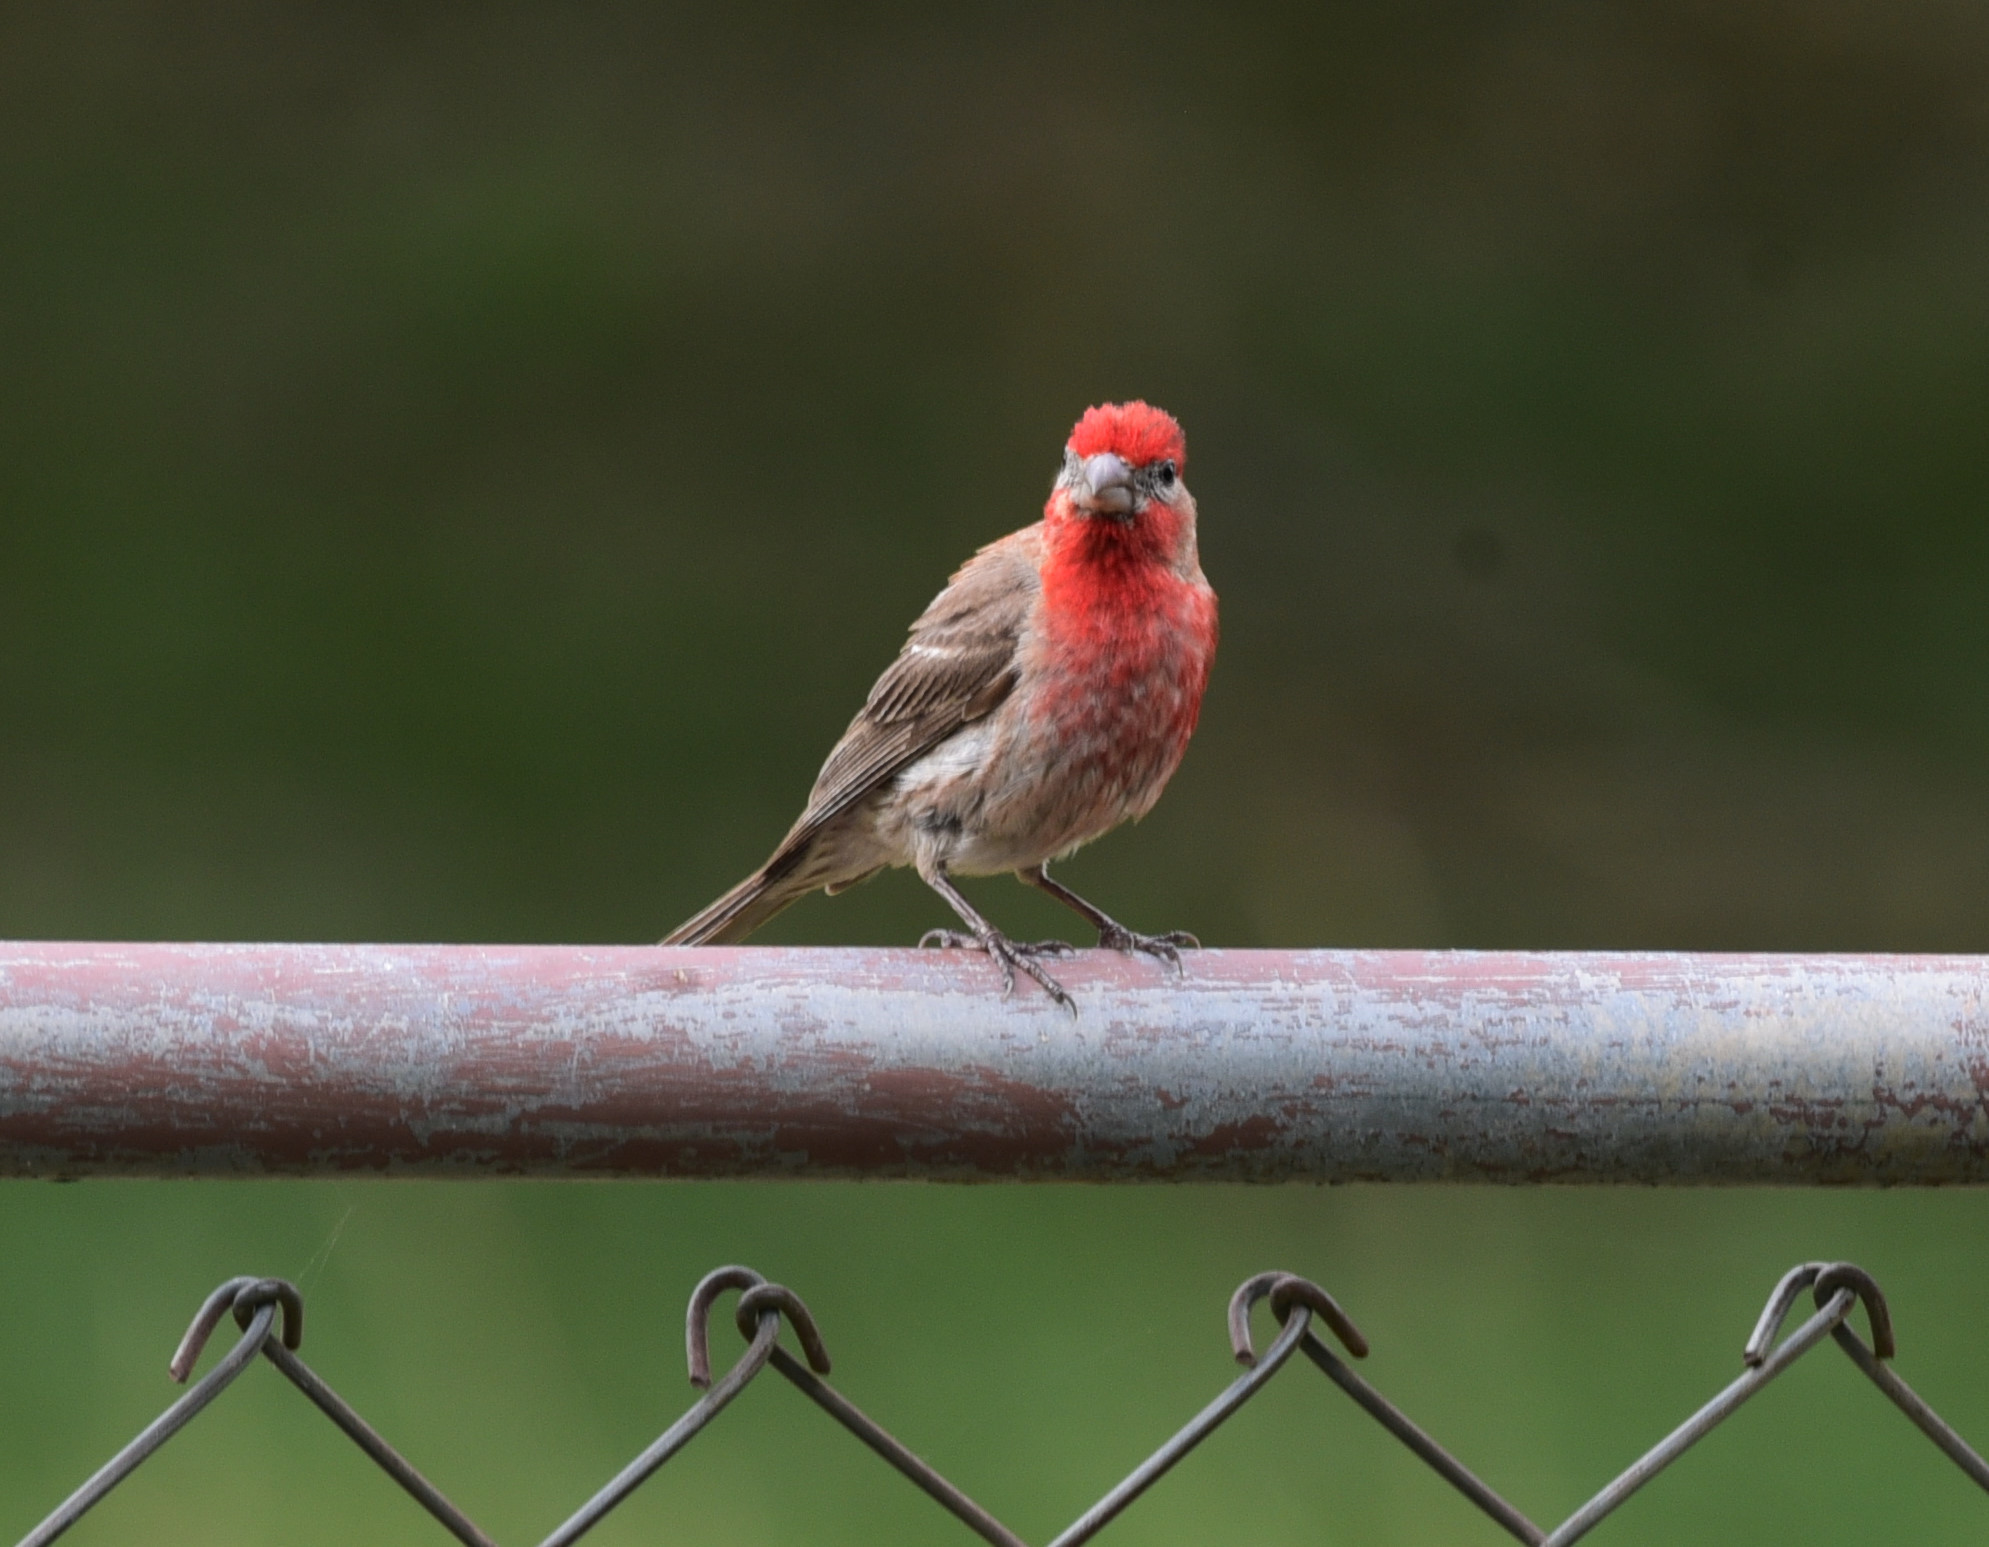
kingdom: Animalia
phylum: Chordata
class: Aves
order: Passeriformes
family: Fringillidae
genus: Haemorhous
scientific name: Haemorhous mexicanus
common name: House finch
